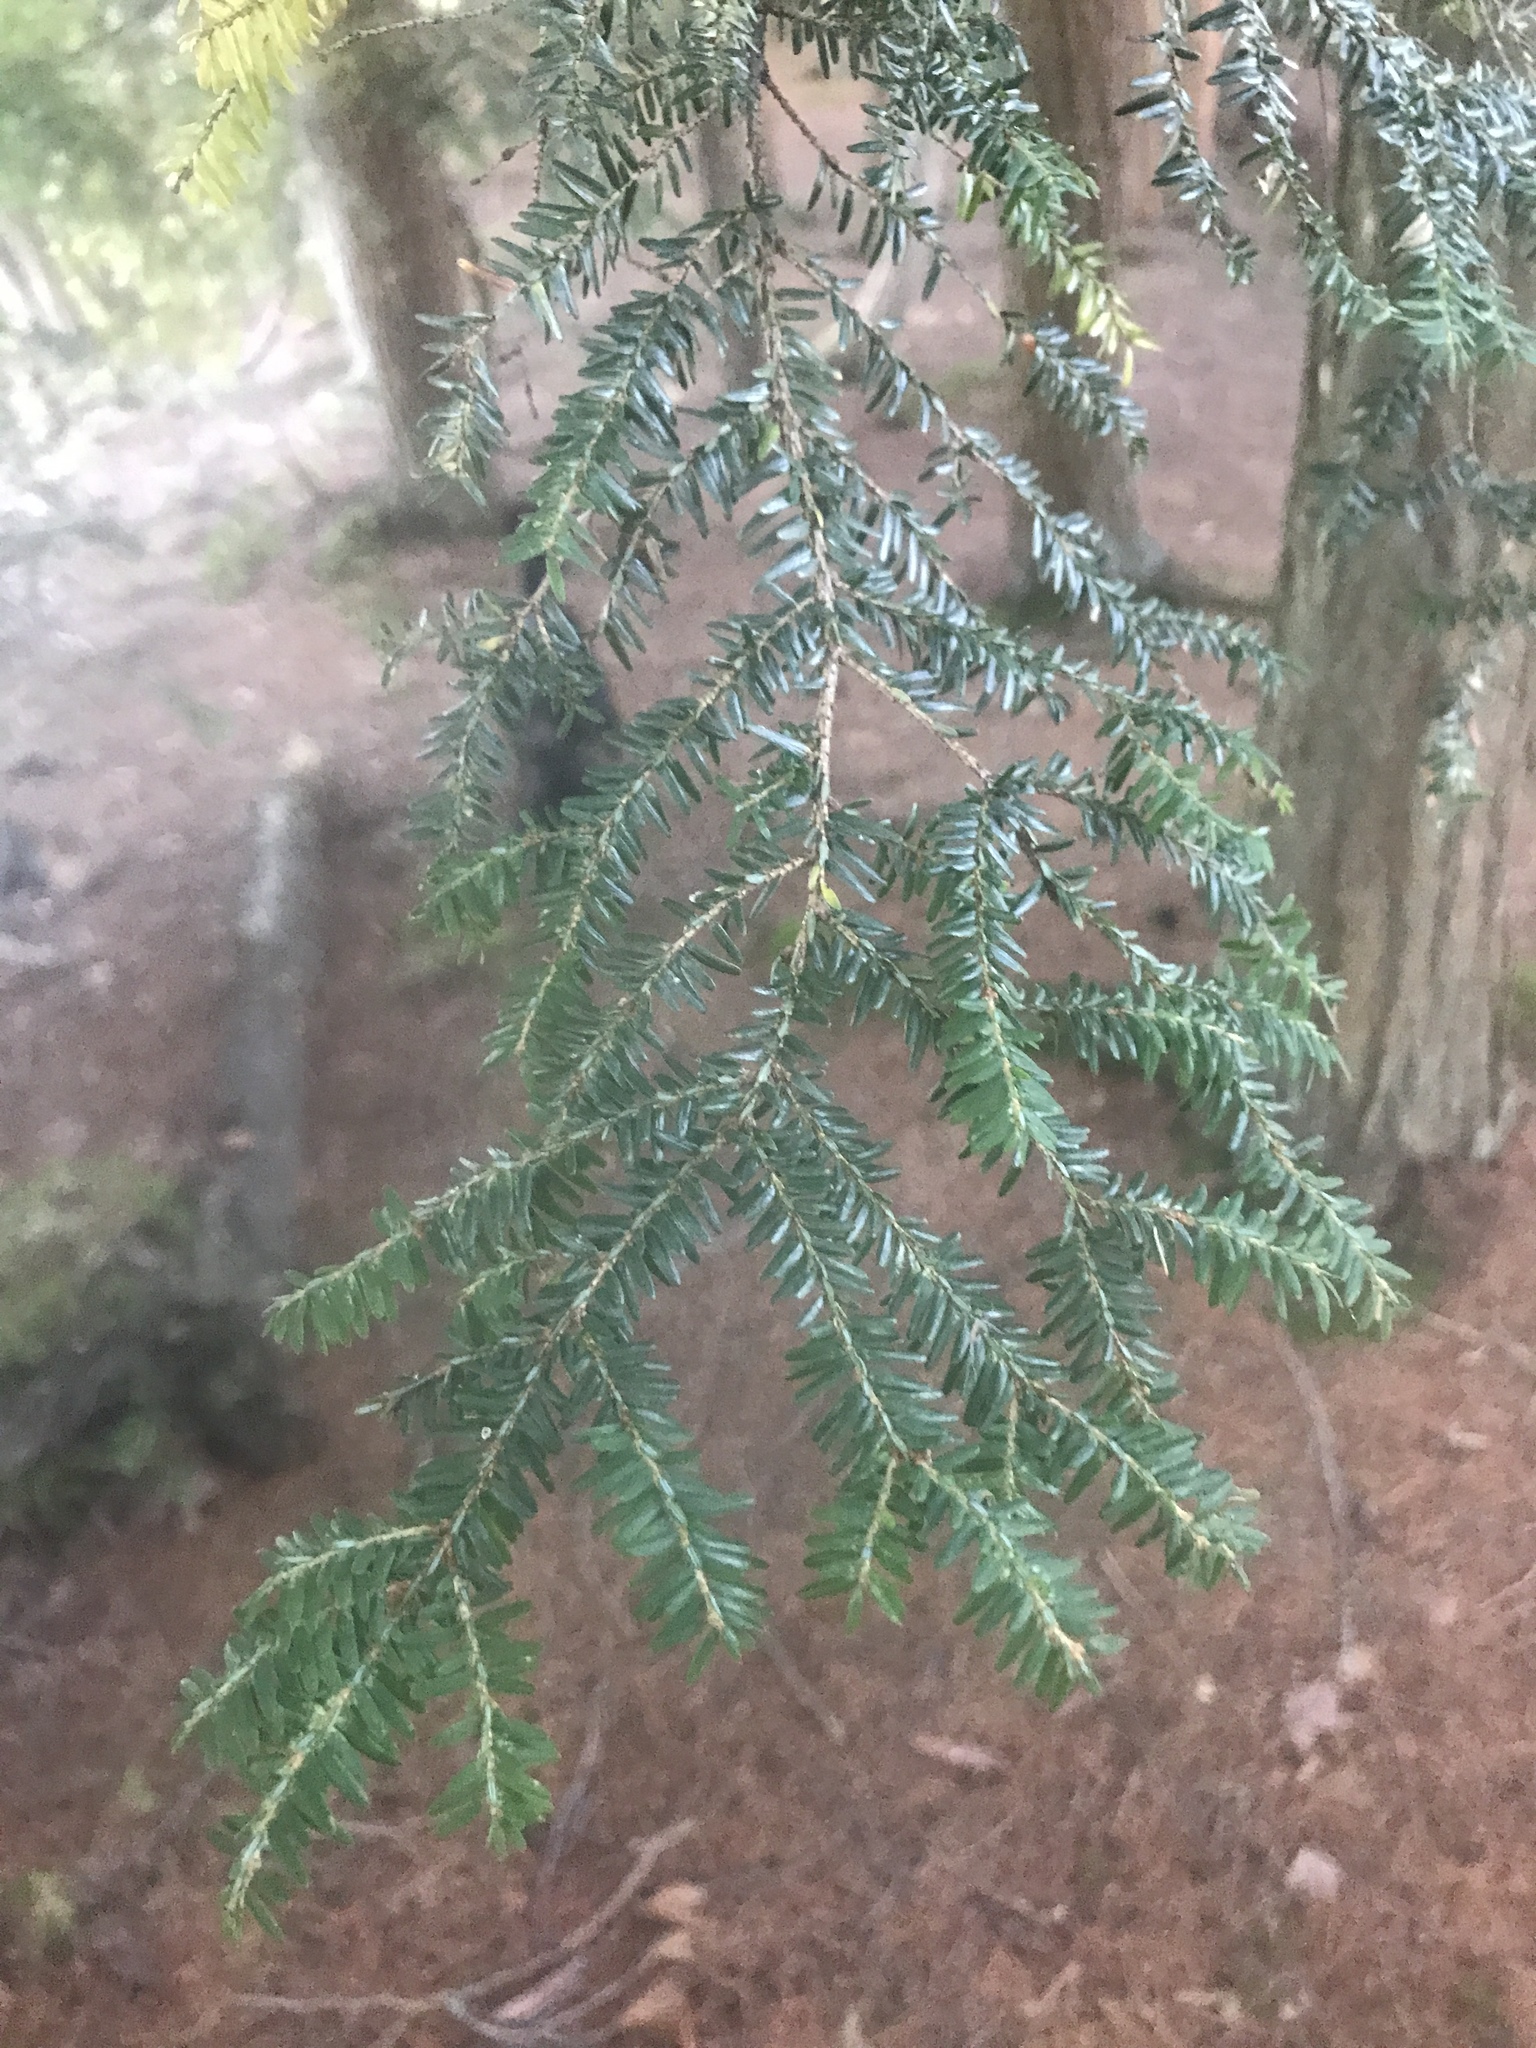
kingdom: Plantae
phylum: Tracheophyta
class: Pinopsida
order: Pinales
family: Pinaceae
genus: Tsuga
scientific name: Tsuga canadensis
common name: Eastern hemlock
